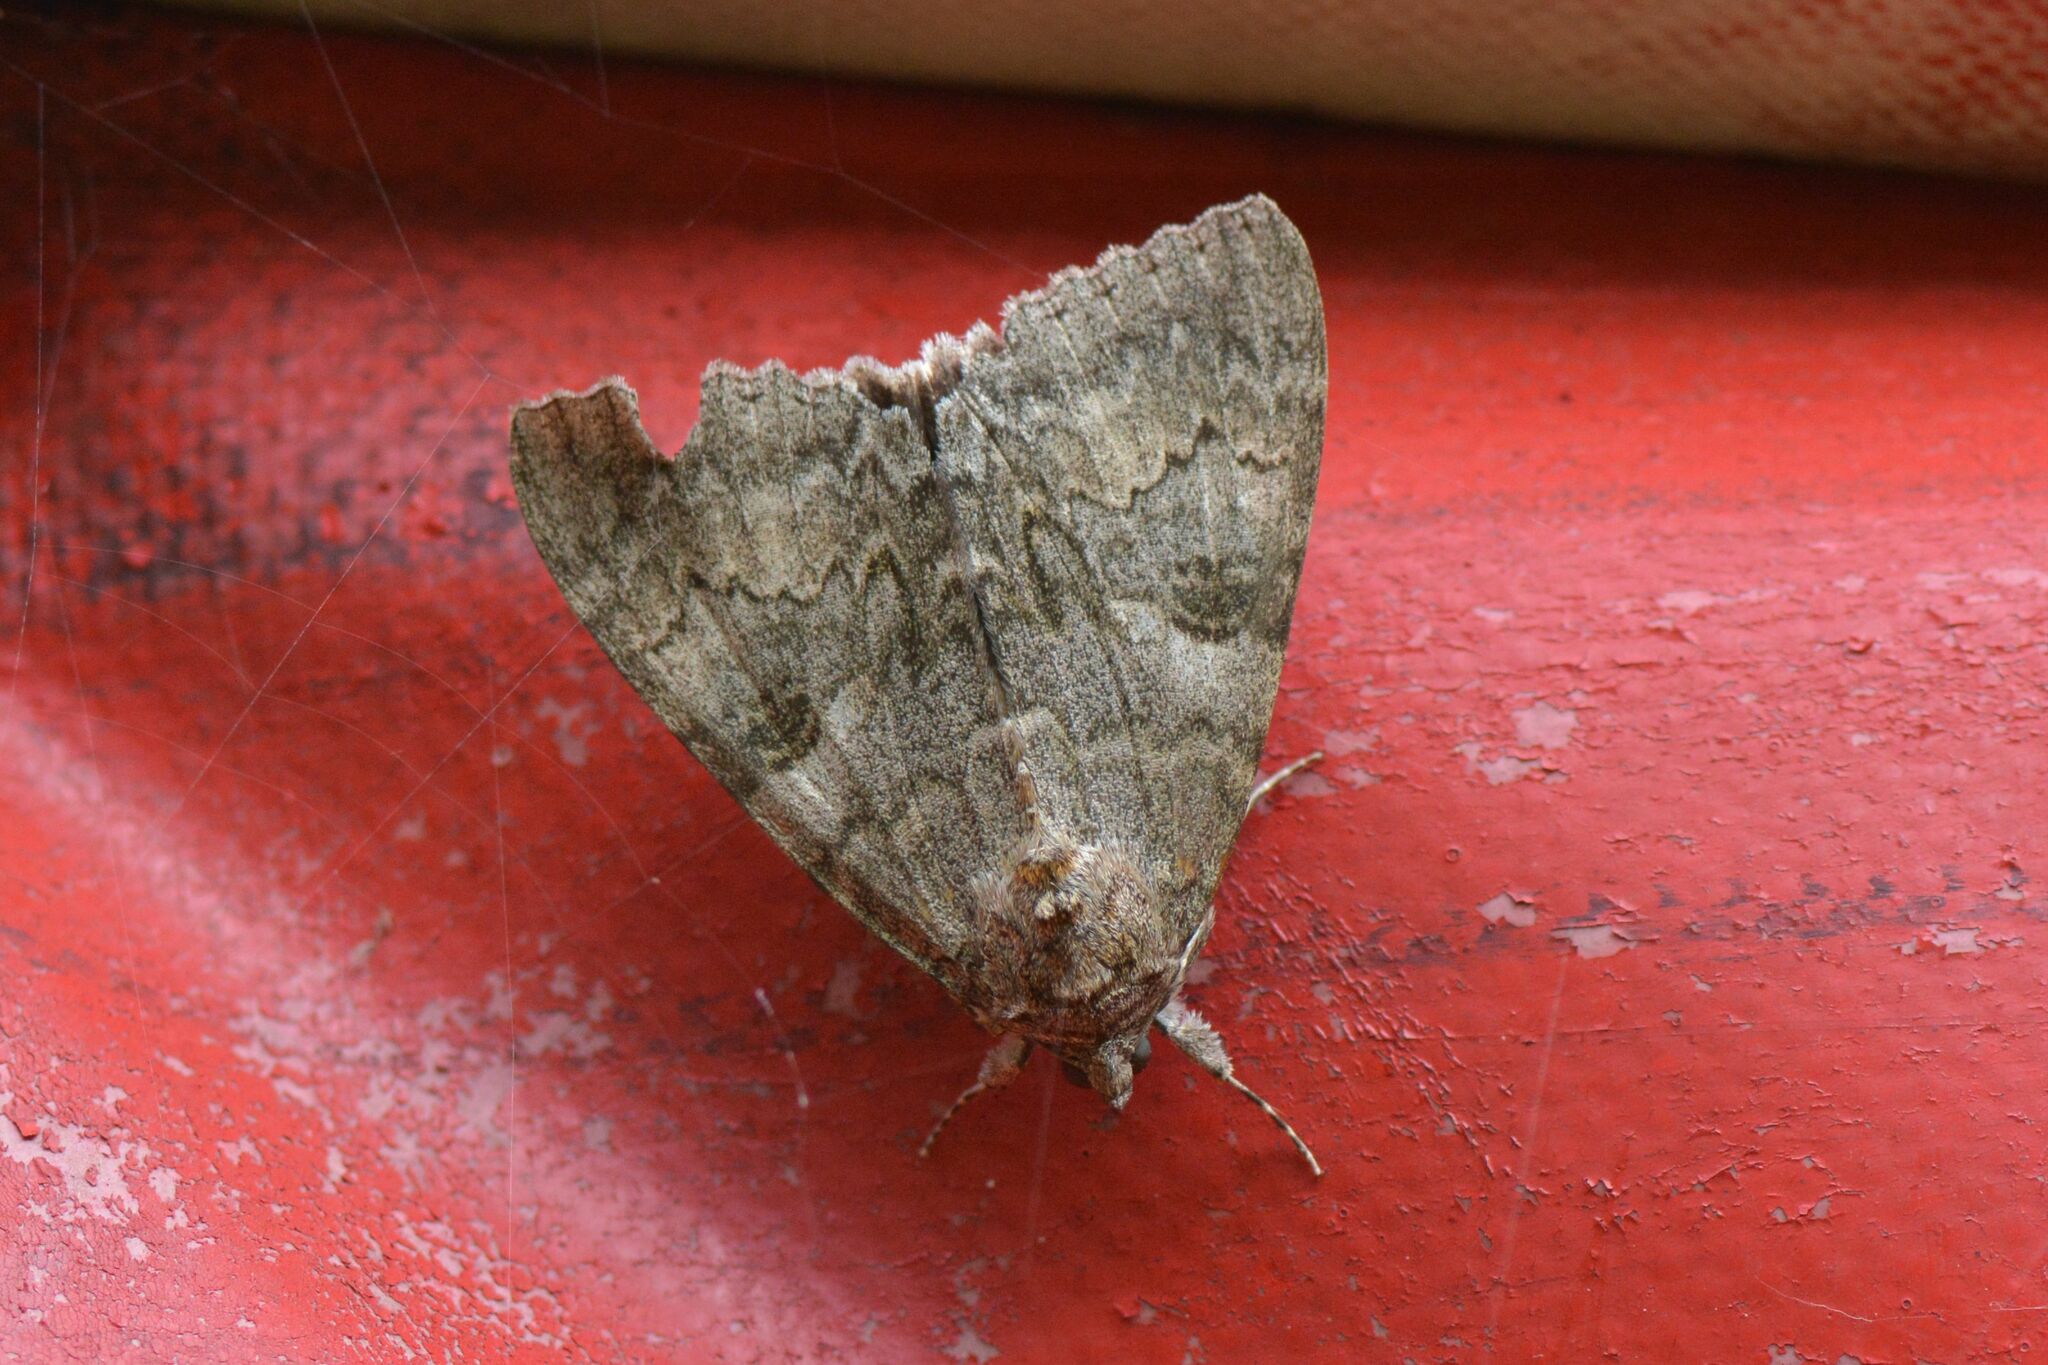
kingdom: Animalia
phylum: Arthropoda
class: Insecta
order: Lepidoptera
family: Erebidae
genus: Catocala
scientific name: Catocala nupta
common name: Red underwing
